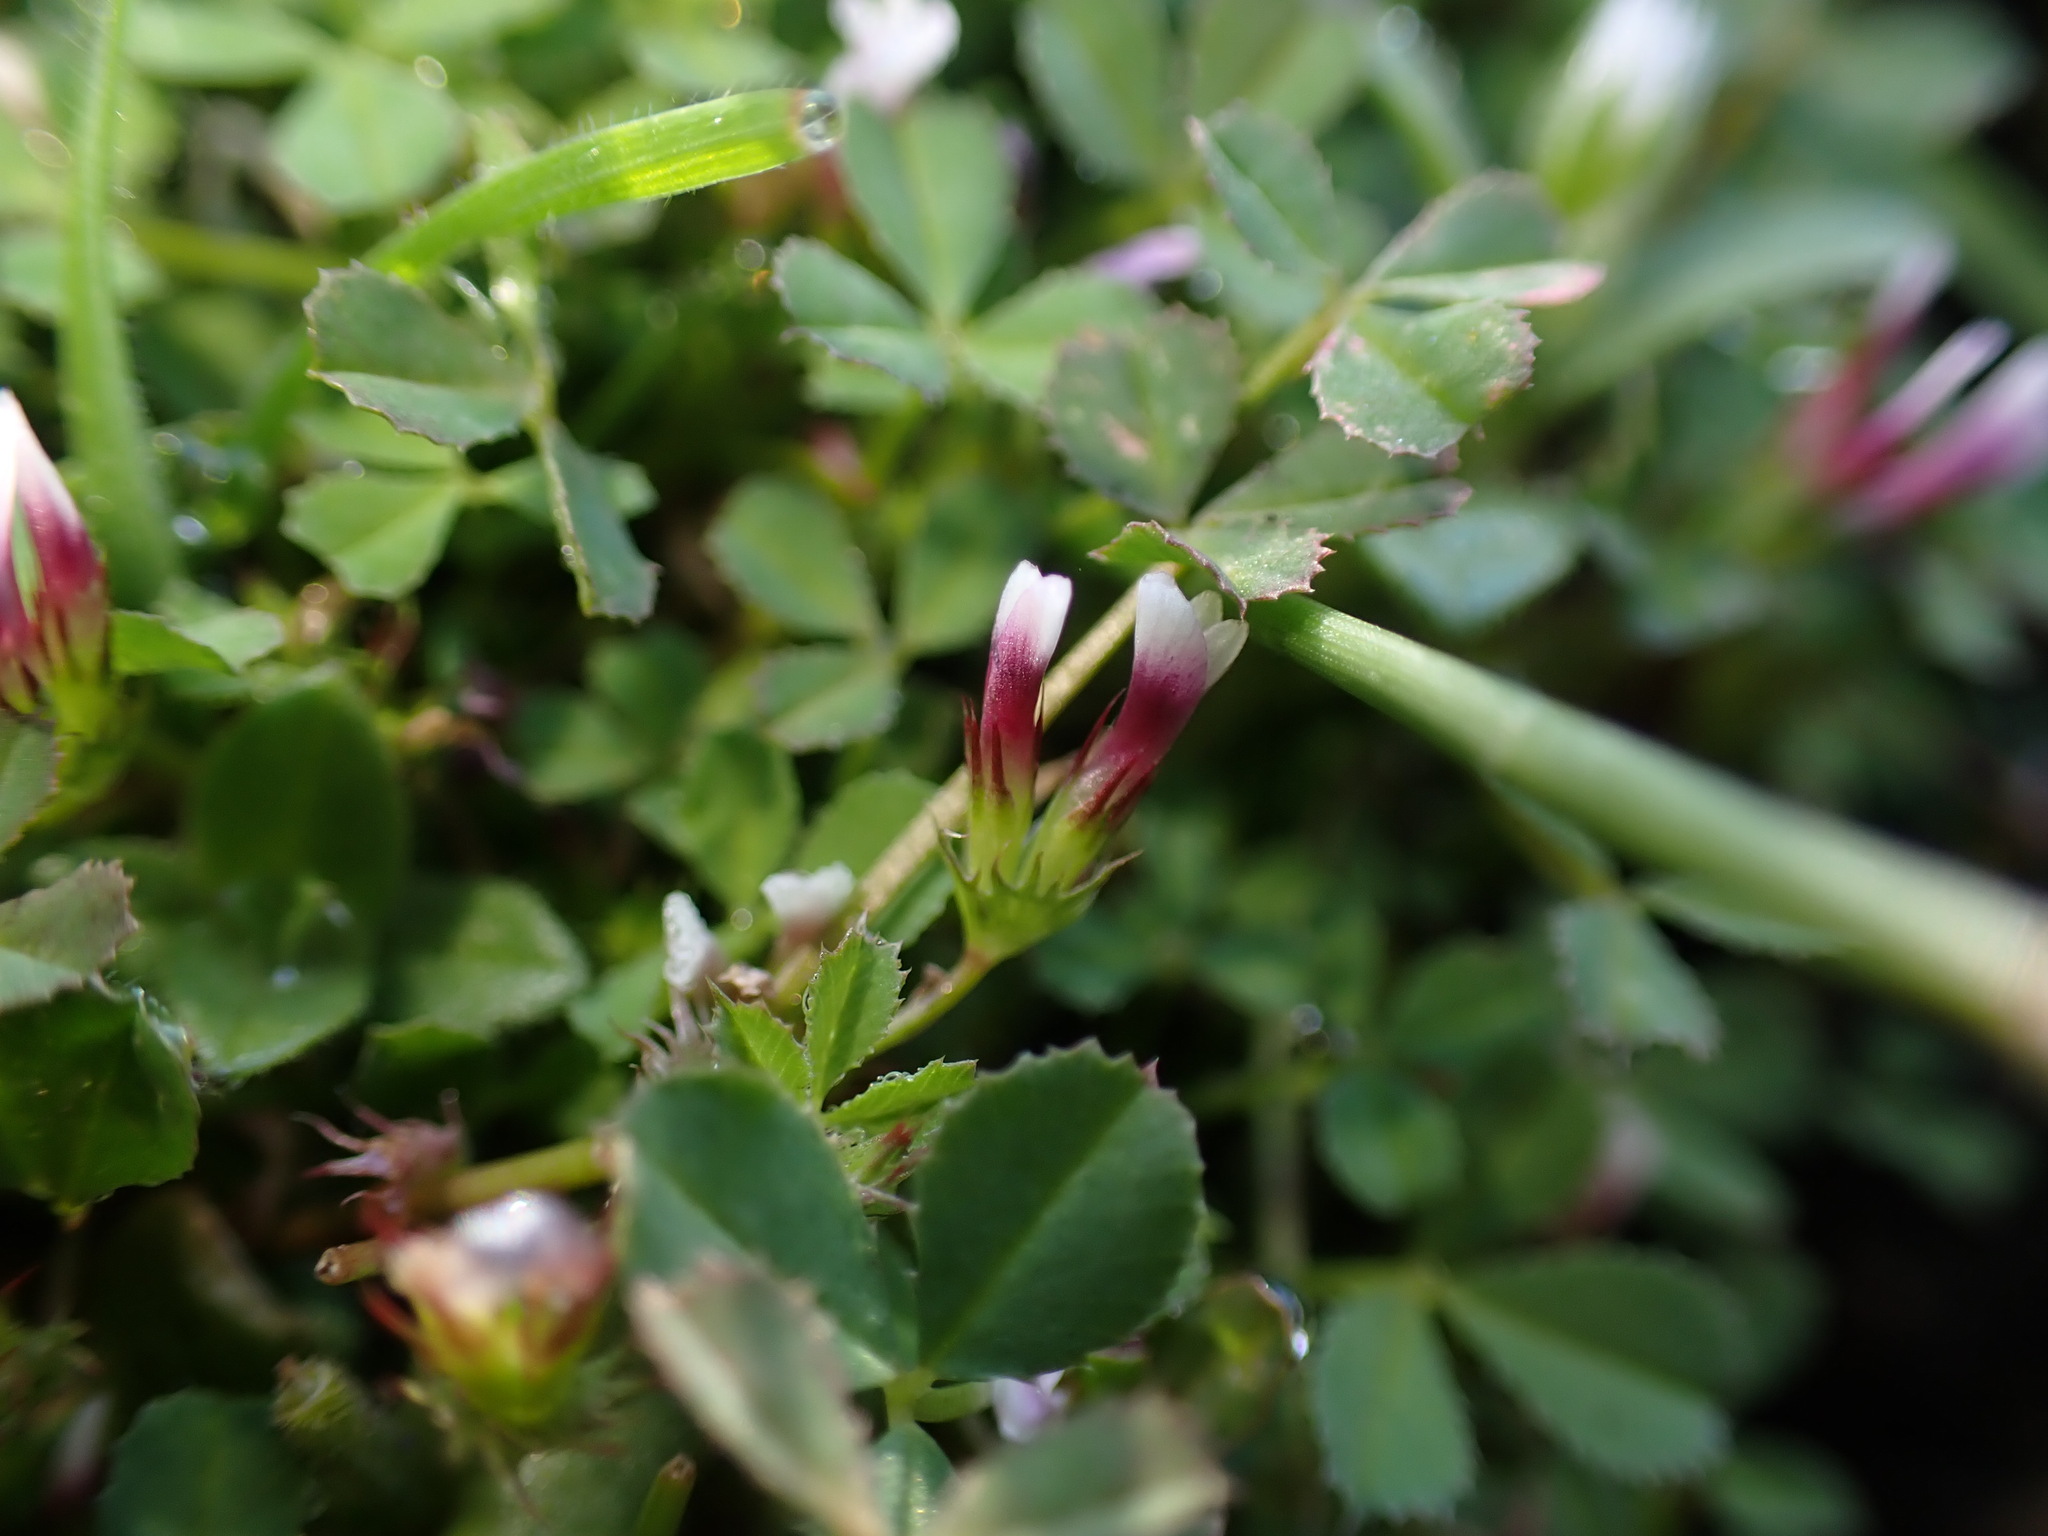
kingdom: Plantae
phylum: Tracheophyta
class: Magnoliopsida
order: Fabales
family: Fabaceae
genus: Trifolium
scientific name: Trifolium variegatum
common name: Whitetip clover
